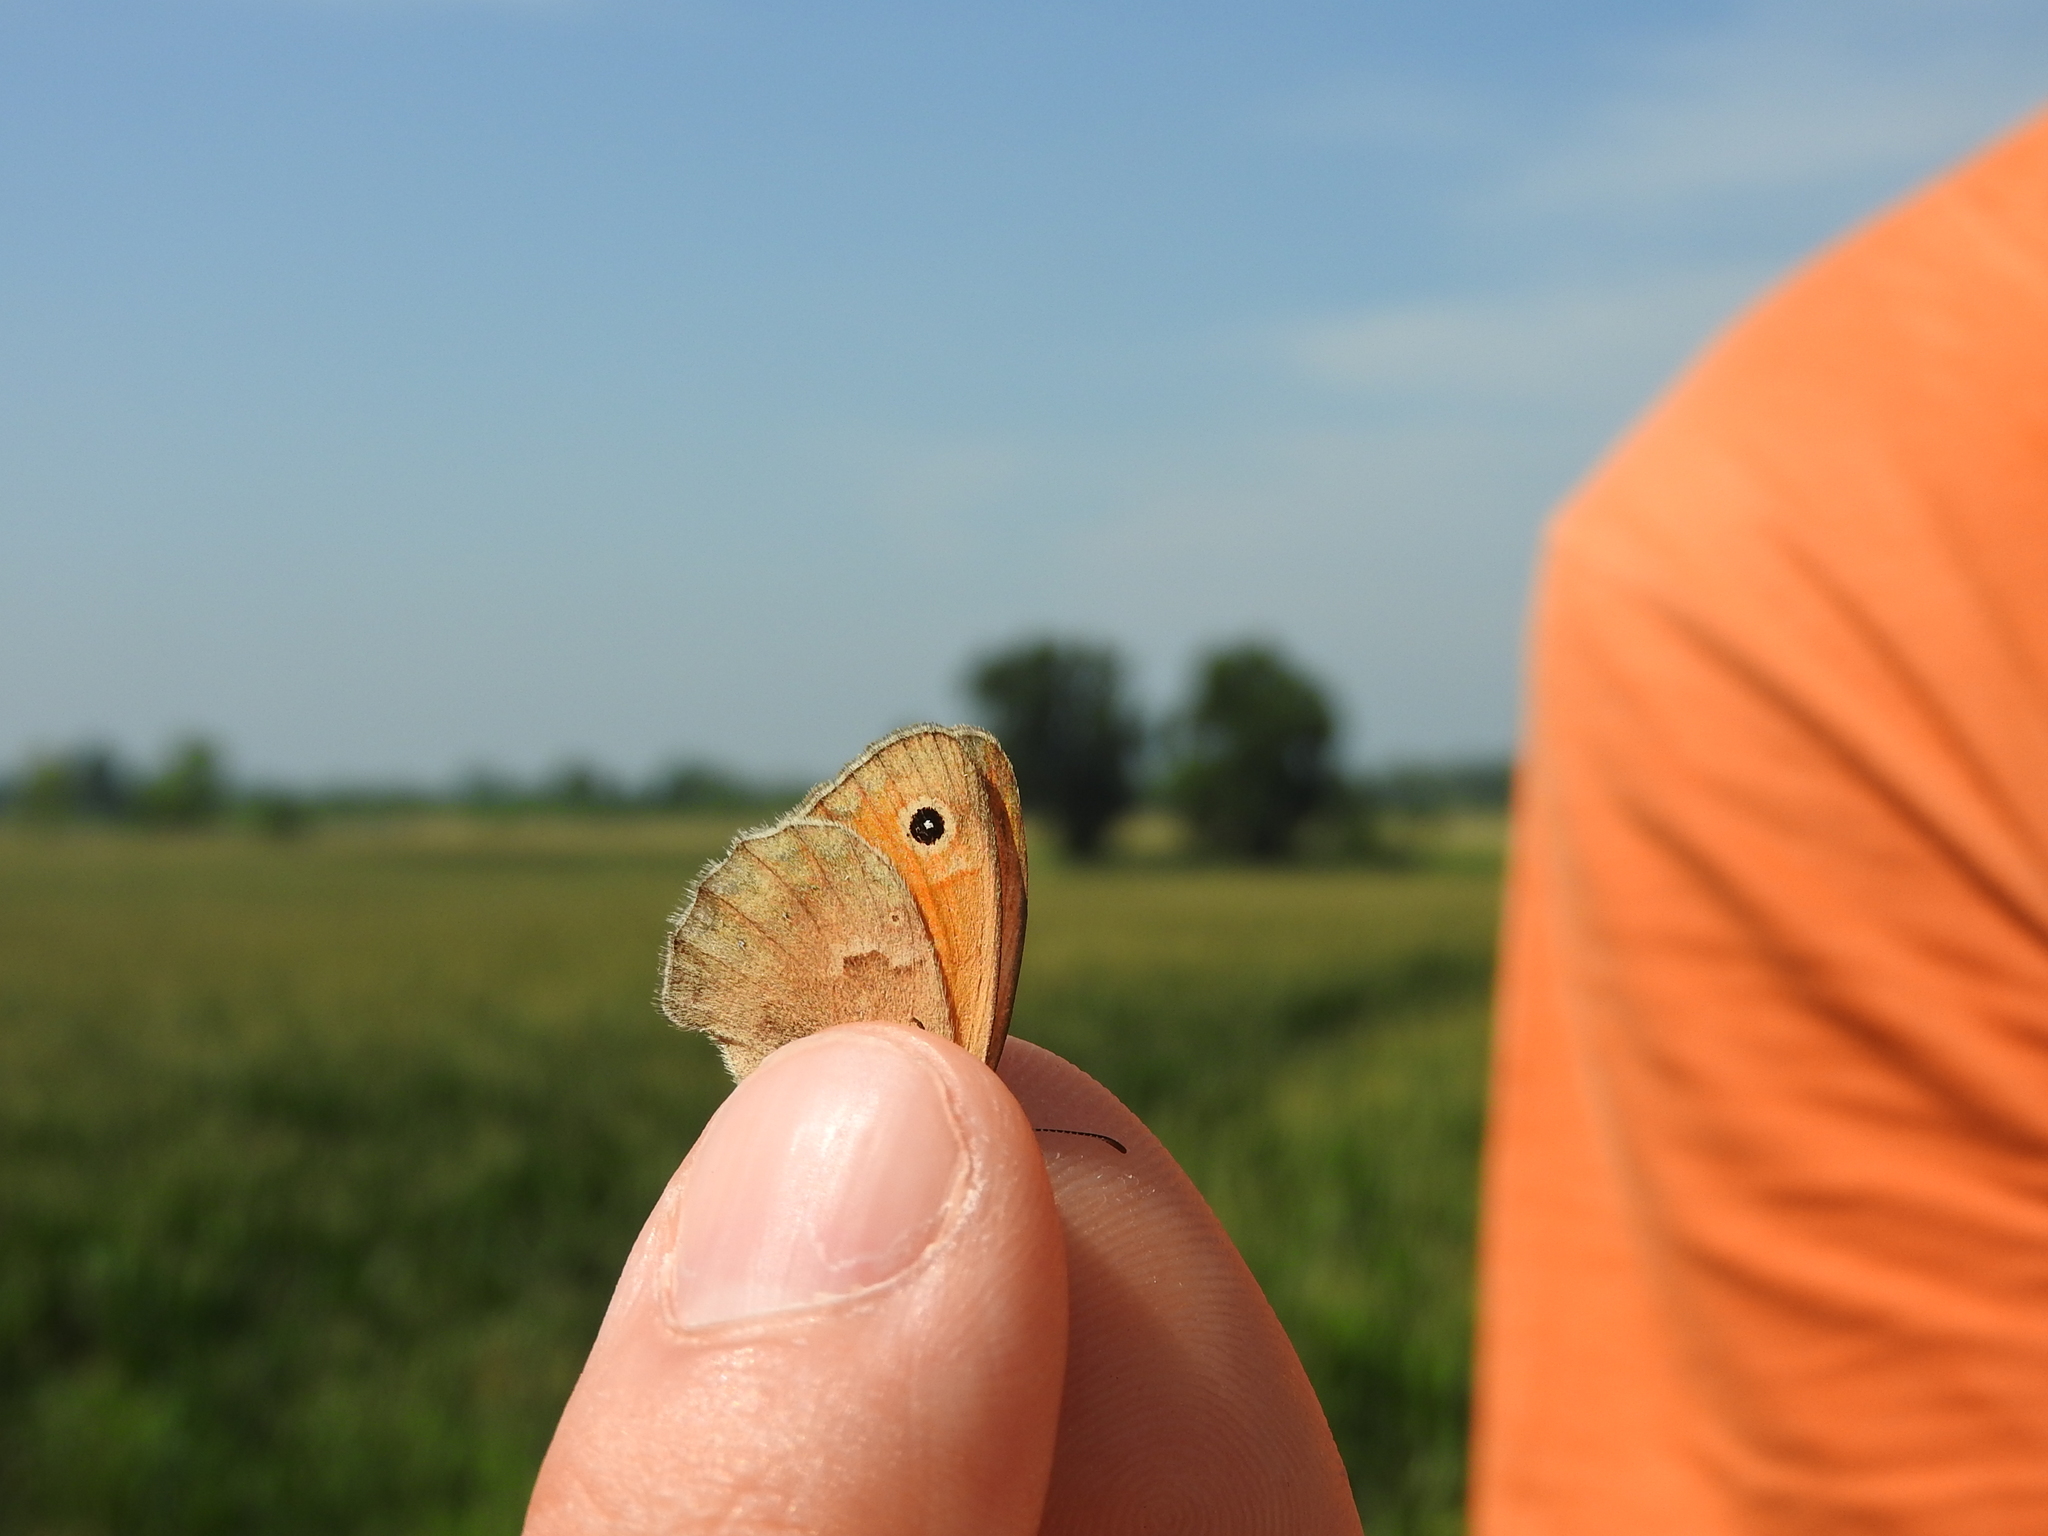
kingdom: Animalia
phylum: Arthropoda
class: Insecta
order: Lepidoptera
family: Nymphalidae
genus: Coenonympha
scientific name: Coenonympha pamphilus
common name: Small heath
